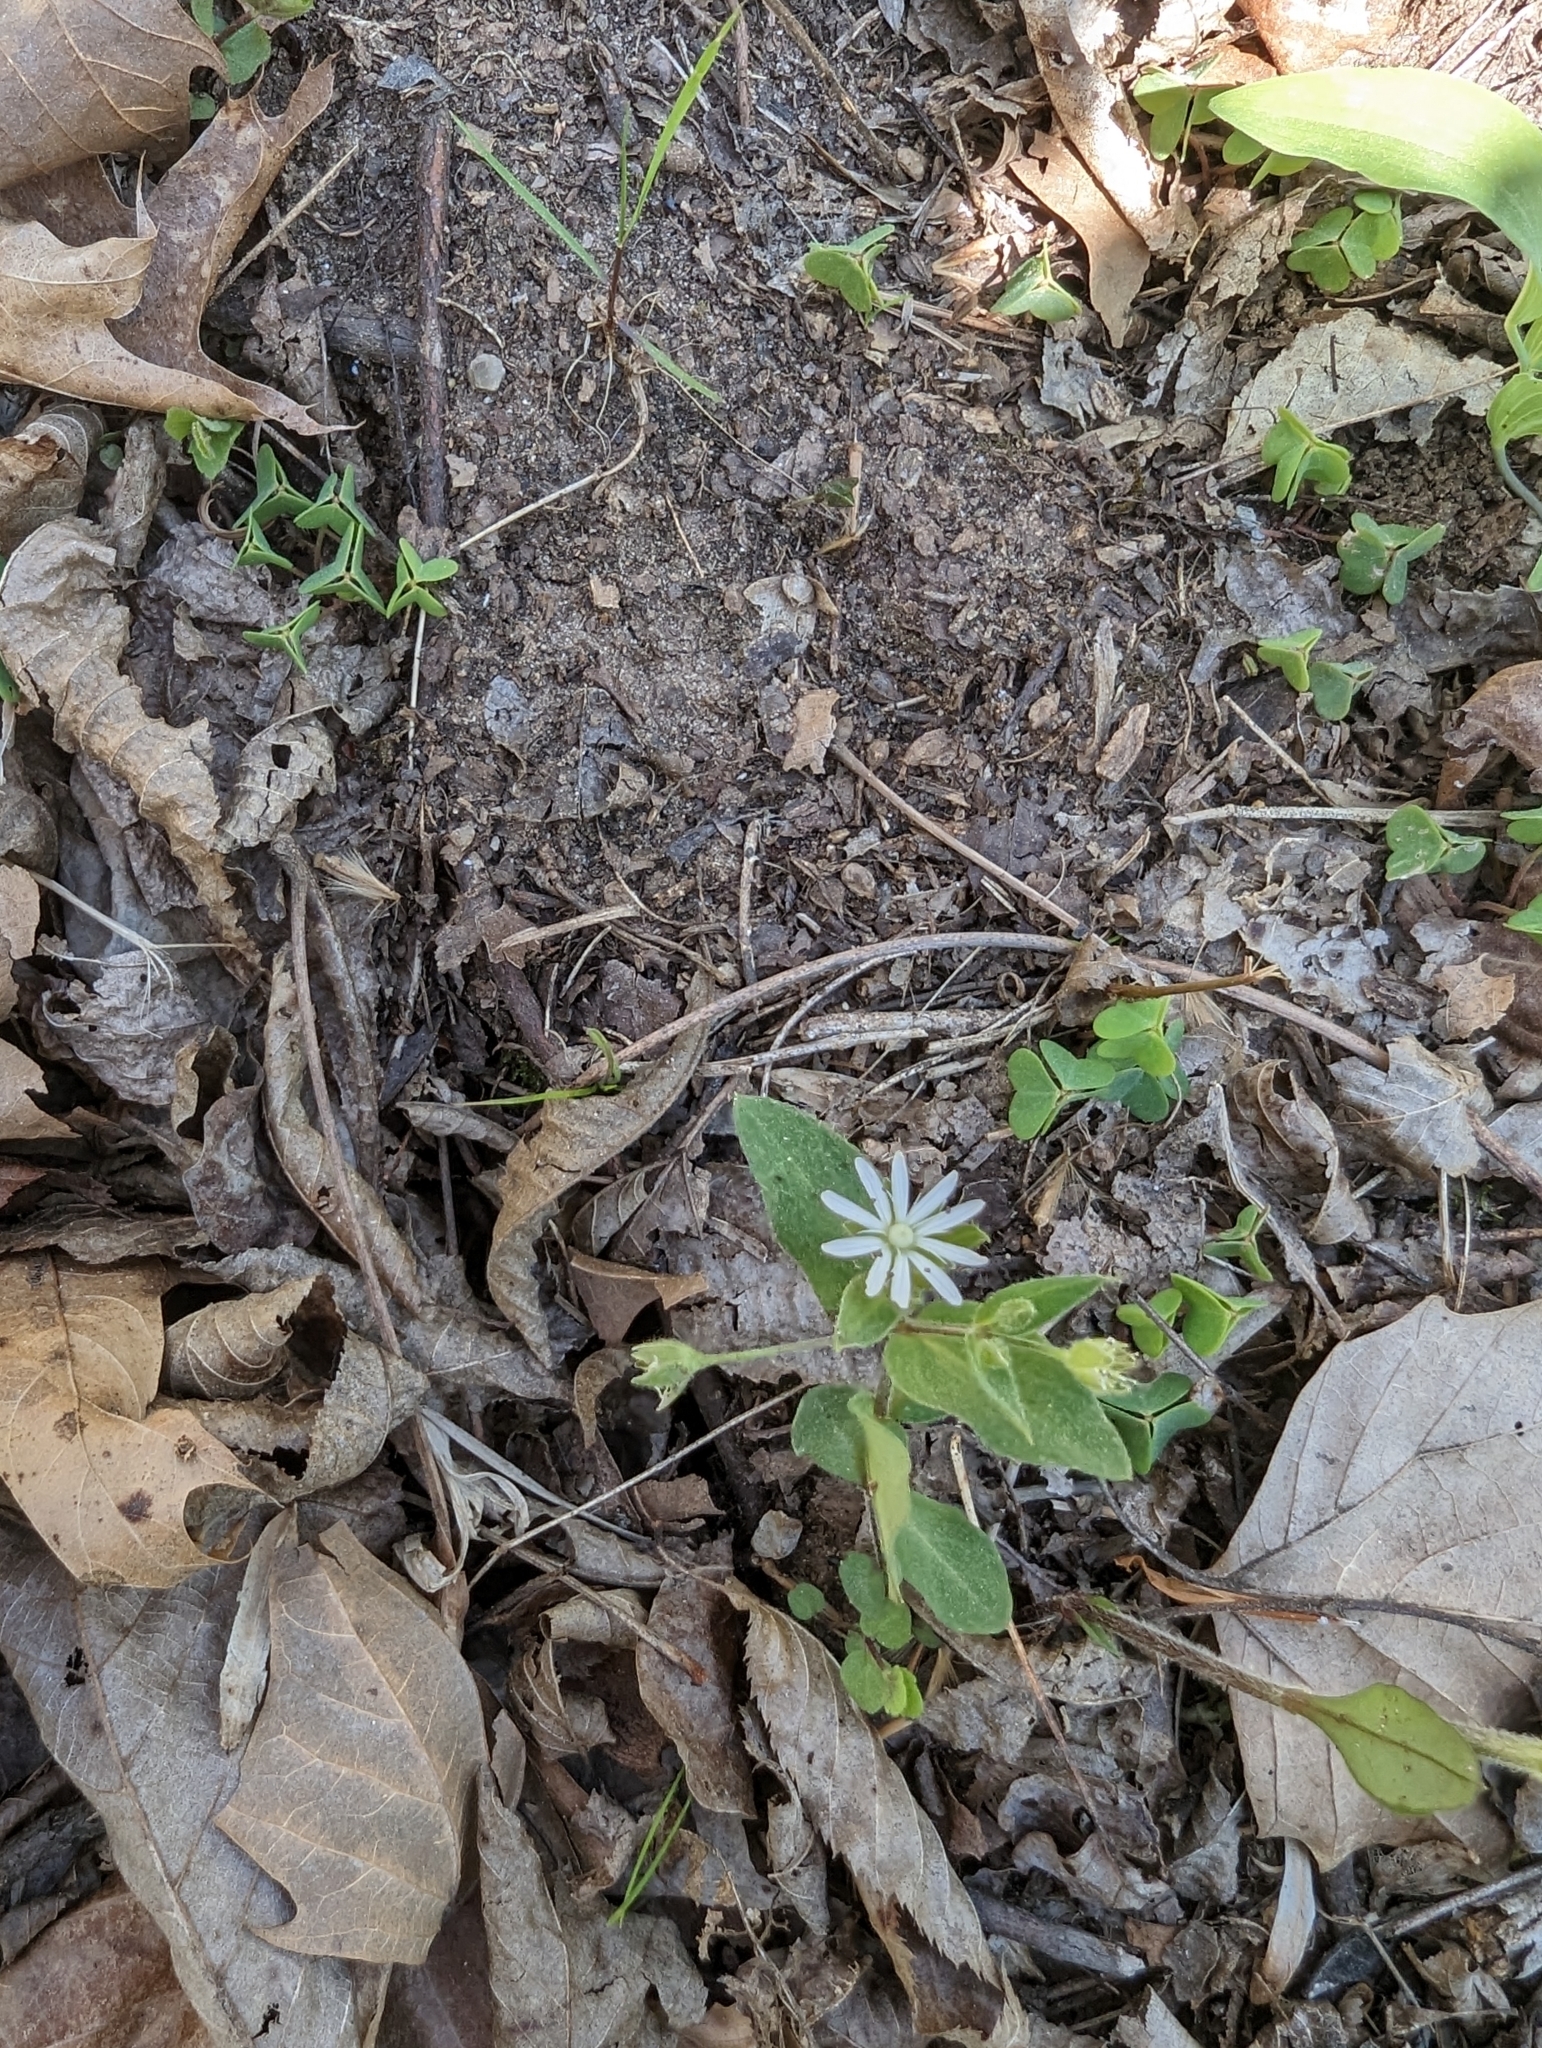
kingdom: Plantae
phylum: Tracheophyta
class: Magnoliopsida
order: Caryophyllales
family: Caryophyllaceae
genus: Stellaria
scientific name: Stellaria pubera
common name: Star chickweed
